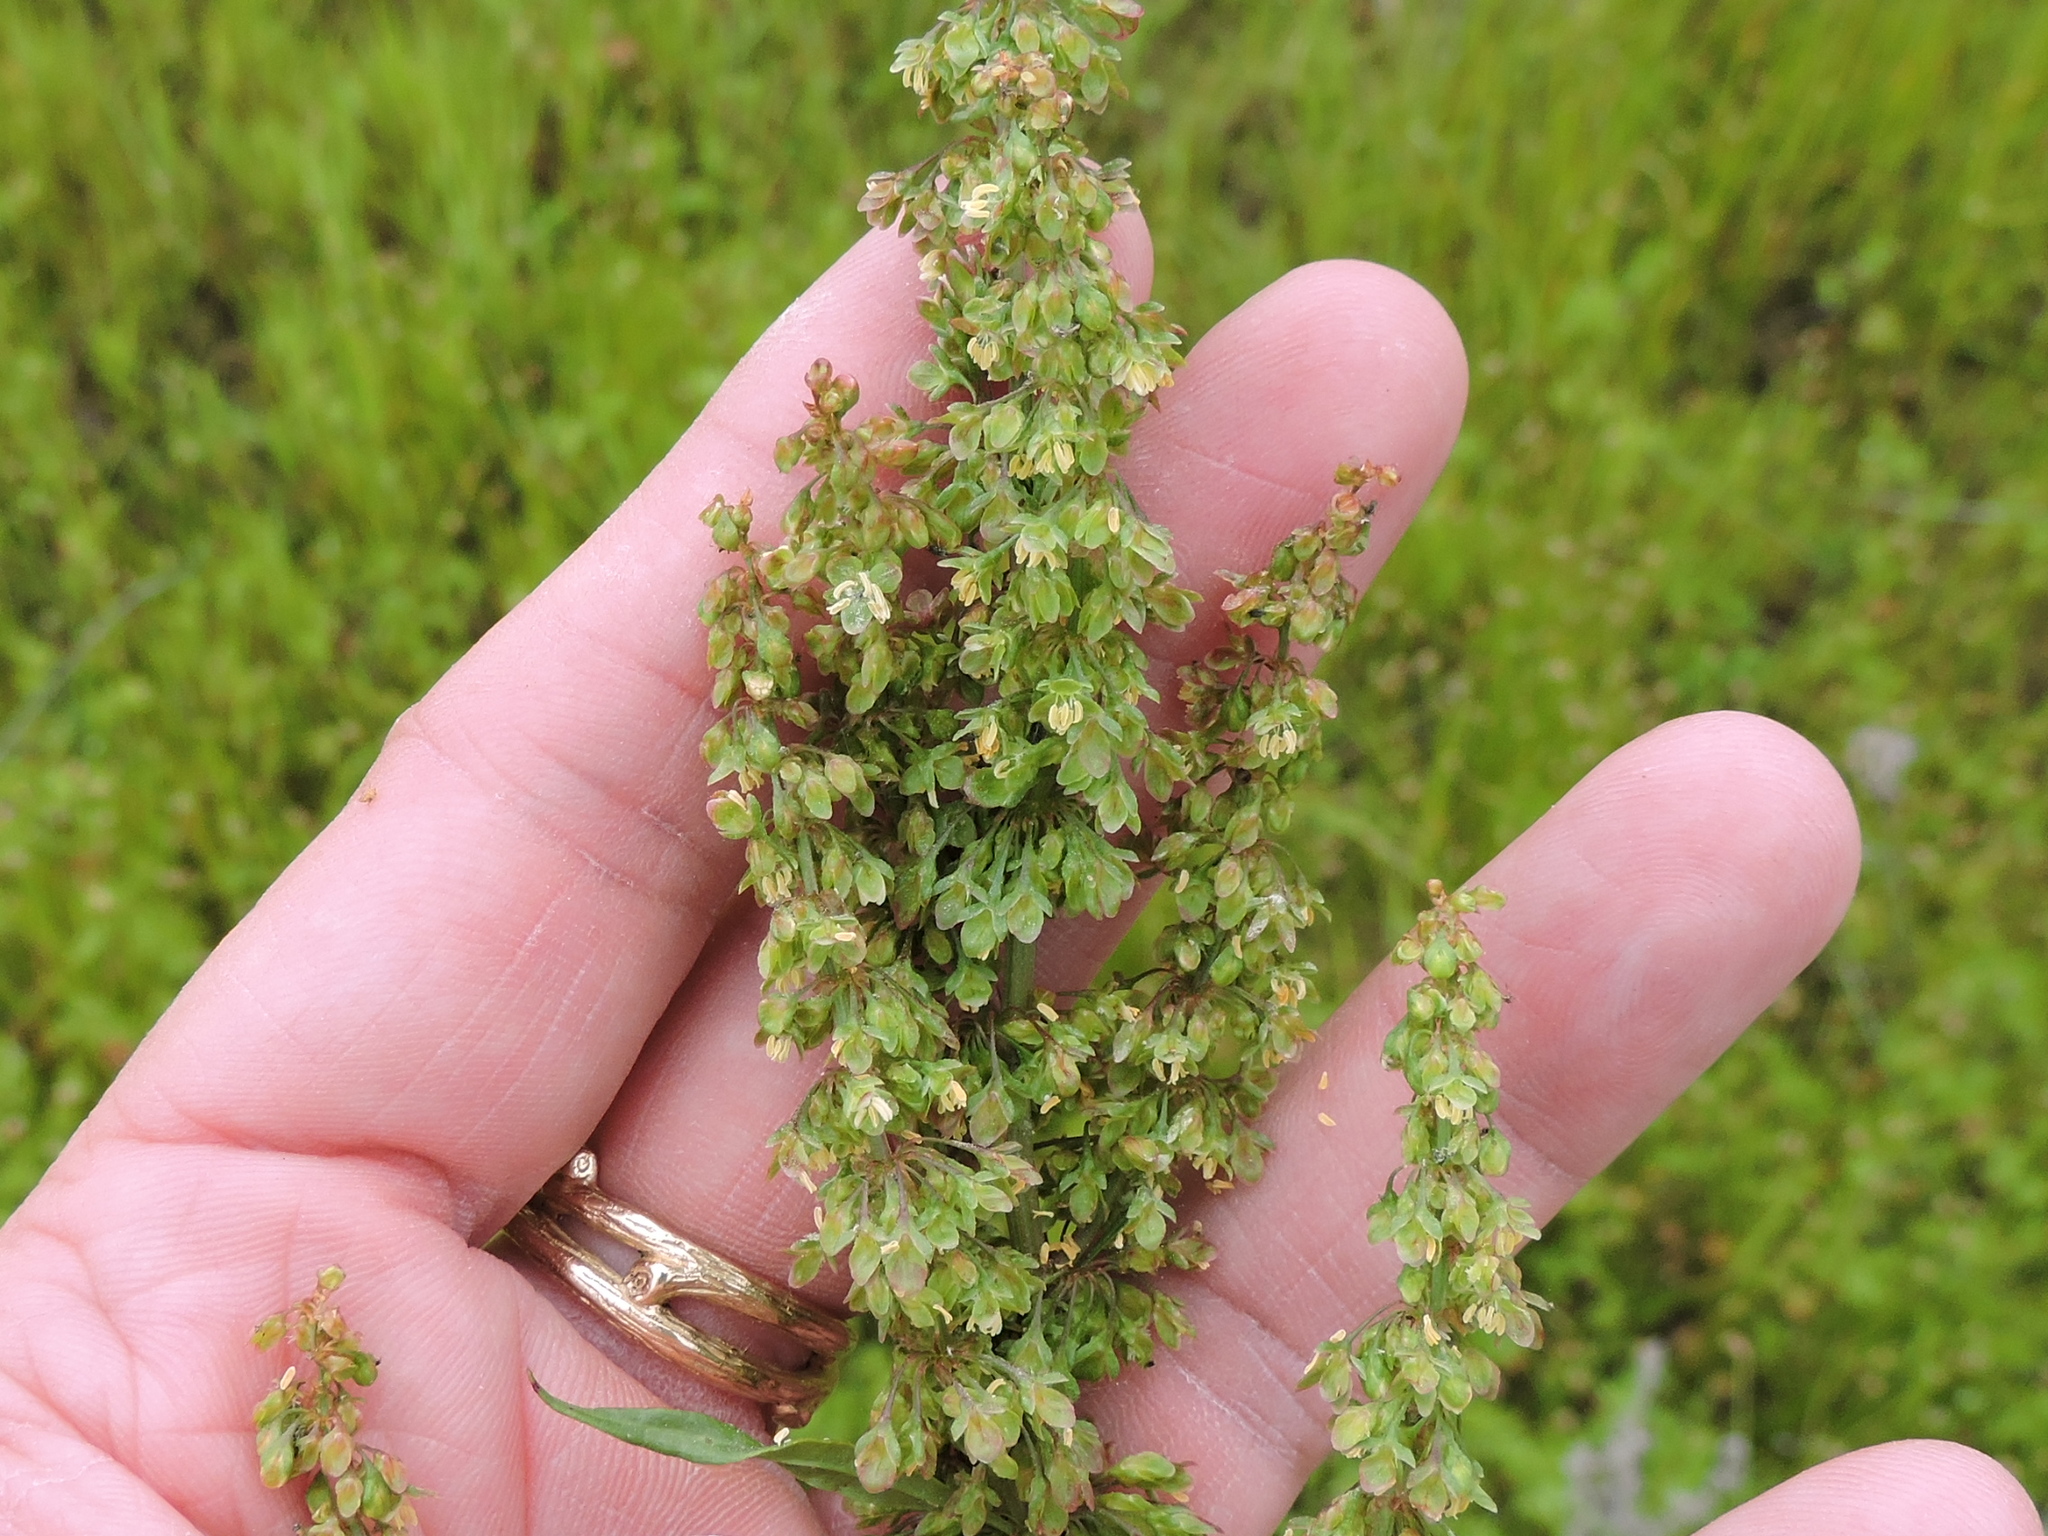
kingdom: Plantae
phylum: Tracheophyta
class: Magnoliopsida
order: Caryophyllales
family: Polygonaceae
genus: Rumex
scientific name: Rumex crispus
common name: Curled dock
